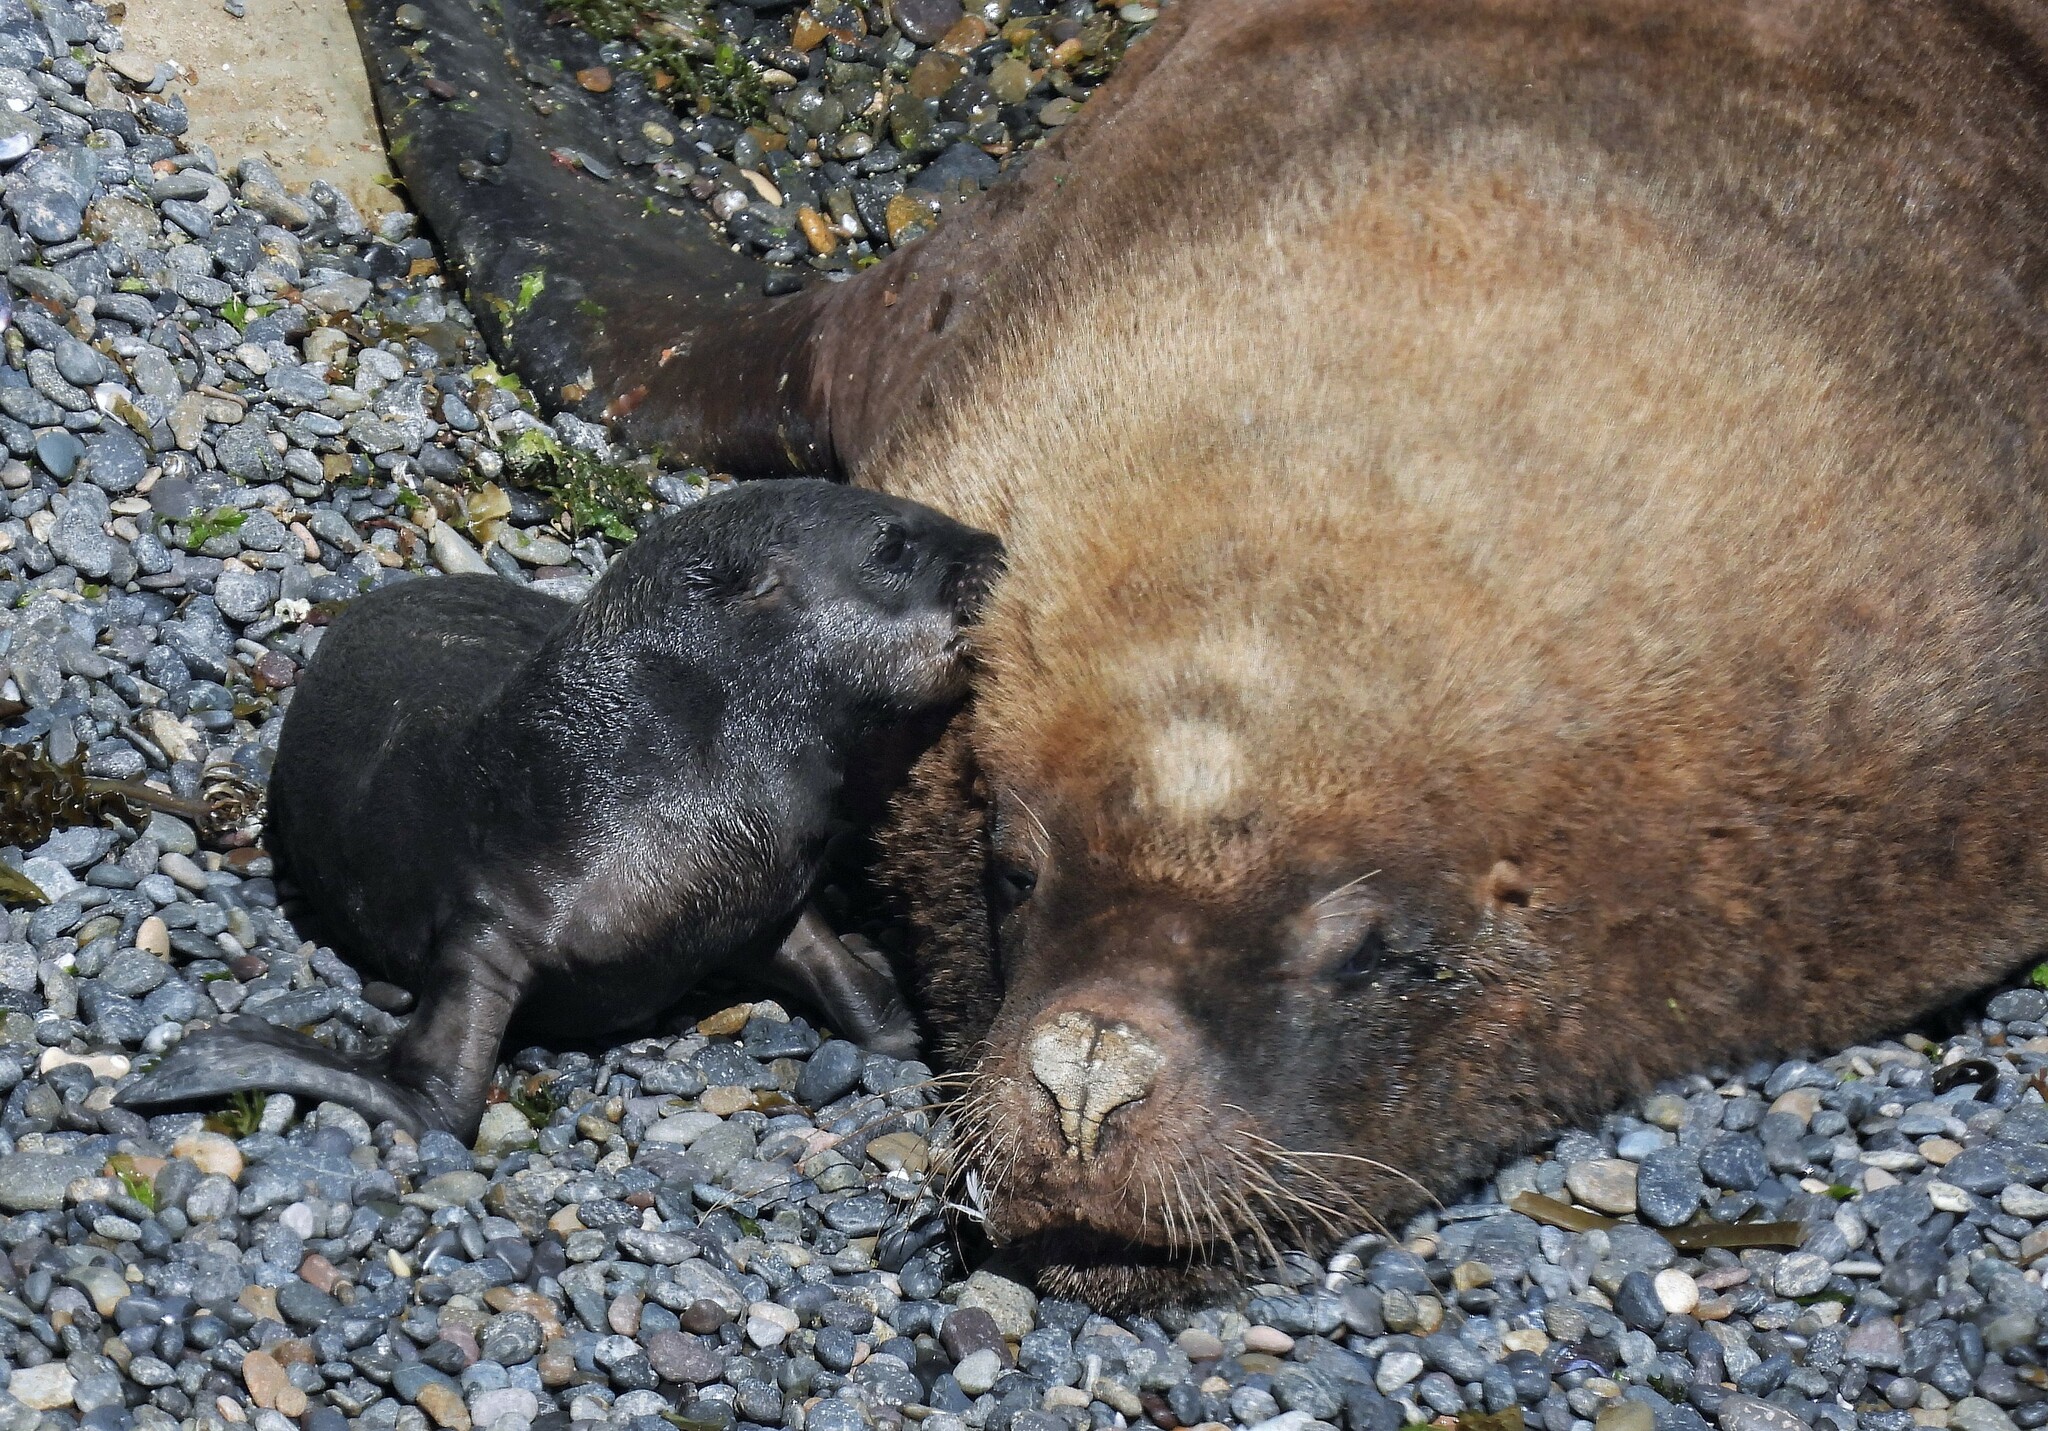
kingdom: Animalia
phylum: Chordata
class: Mammalia
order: Carnivora
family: Otariidae
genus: Otaria
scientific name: Otaria byronia
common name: South american sea lion
